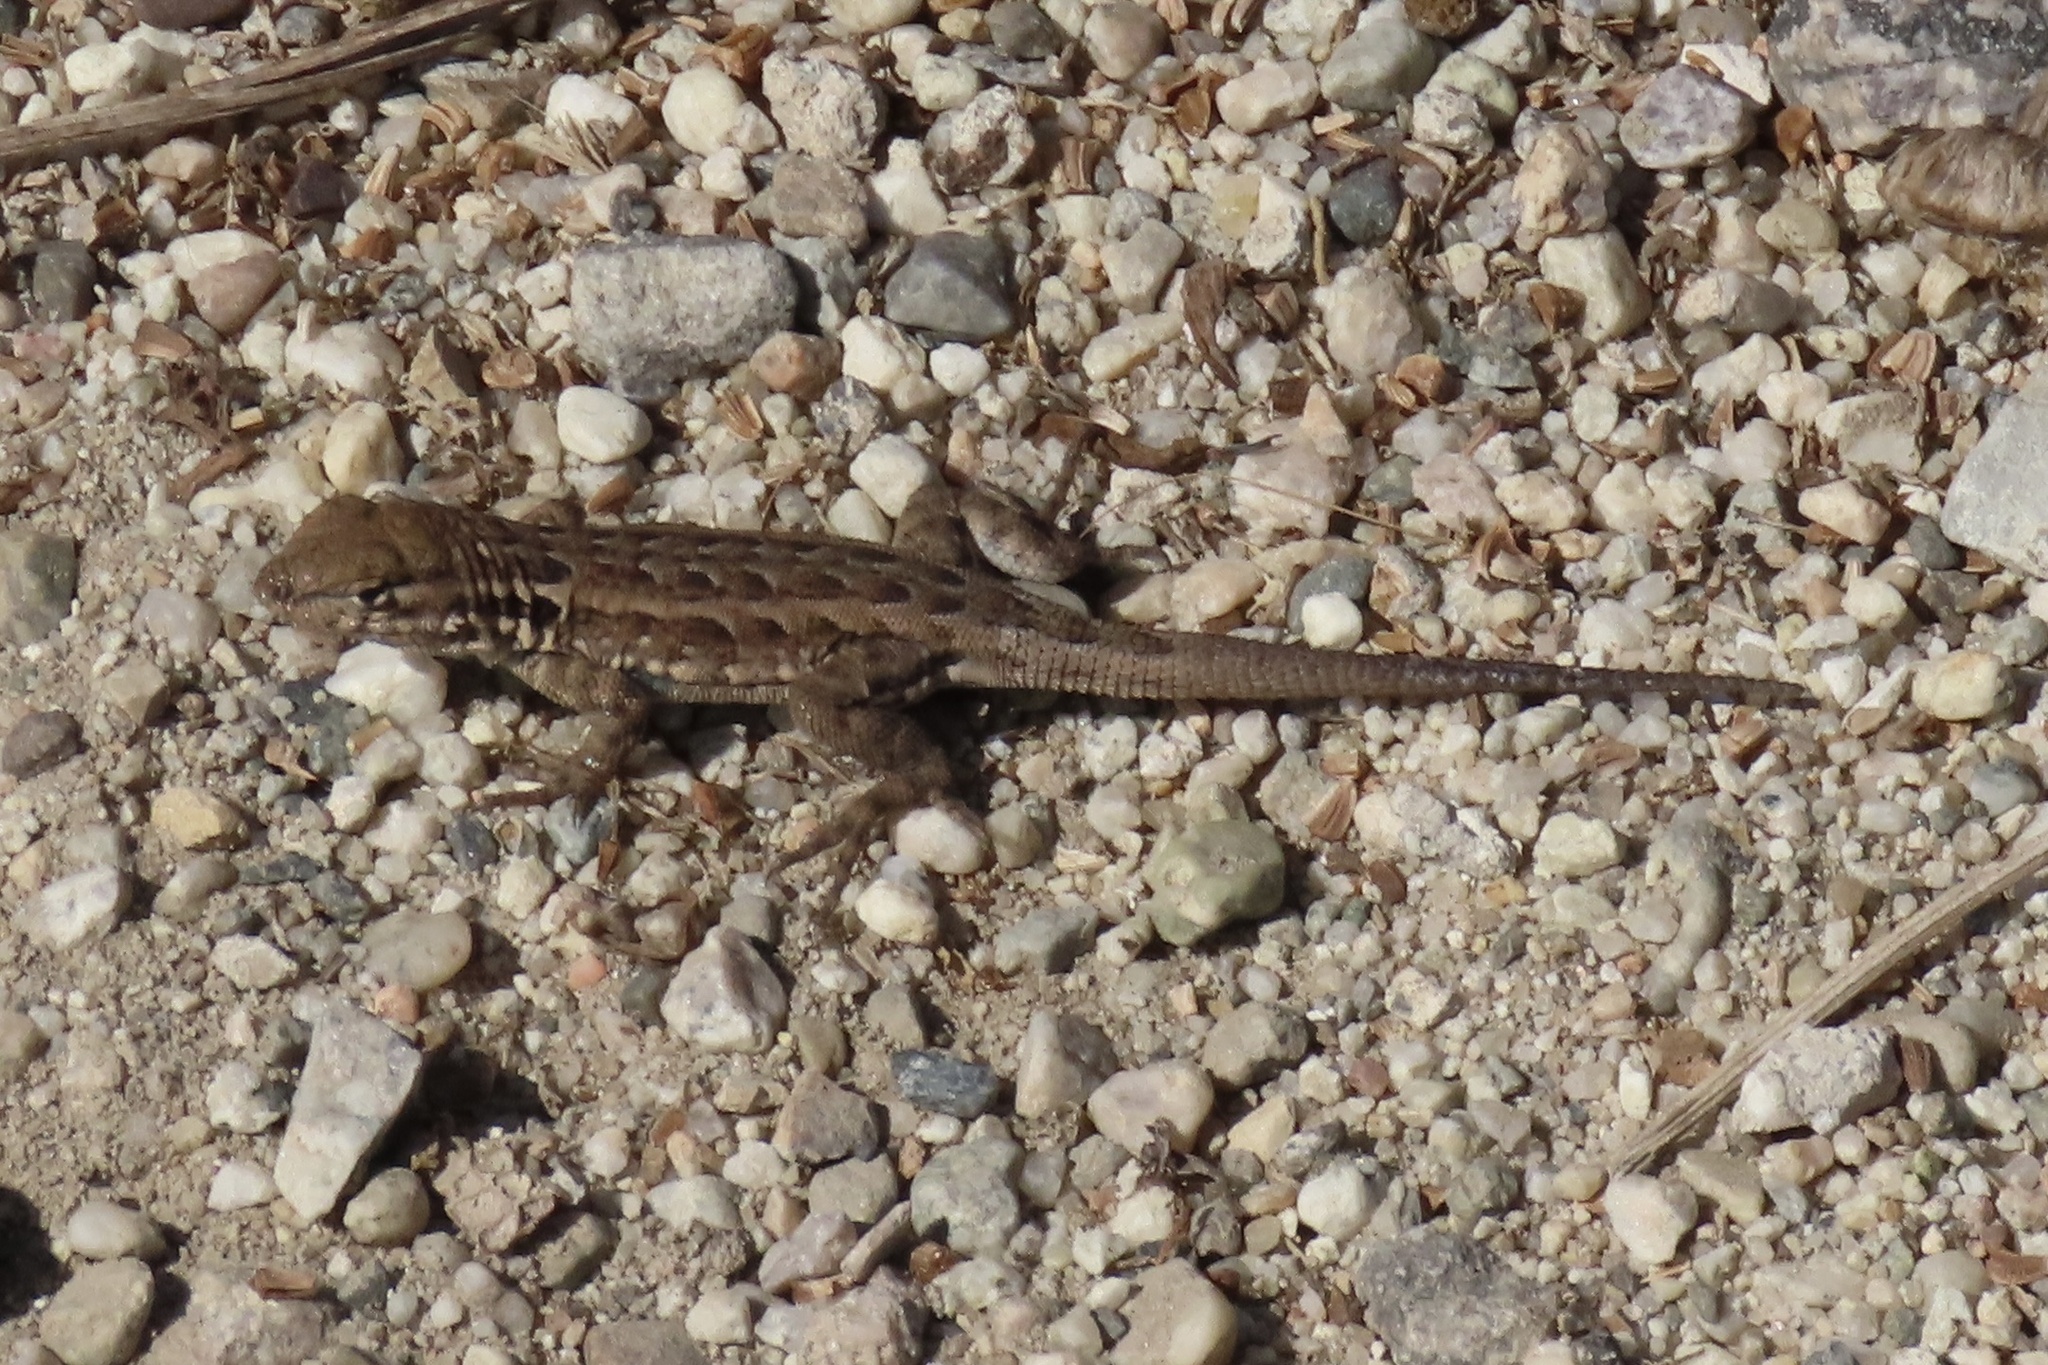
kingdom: Animalia
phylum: Chordata
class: Squamata
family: Phrynosomatidae
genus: Uta
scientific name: Uta stansburiana
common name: Side-blotched lizard
